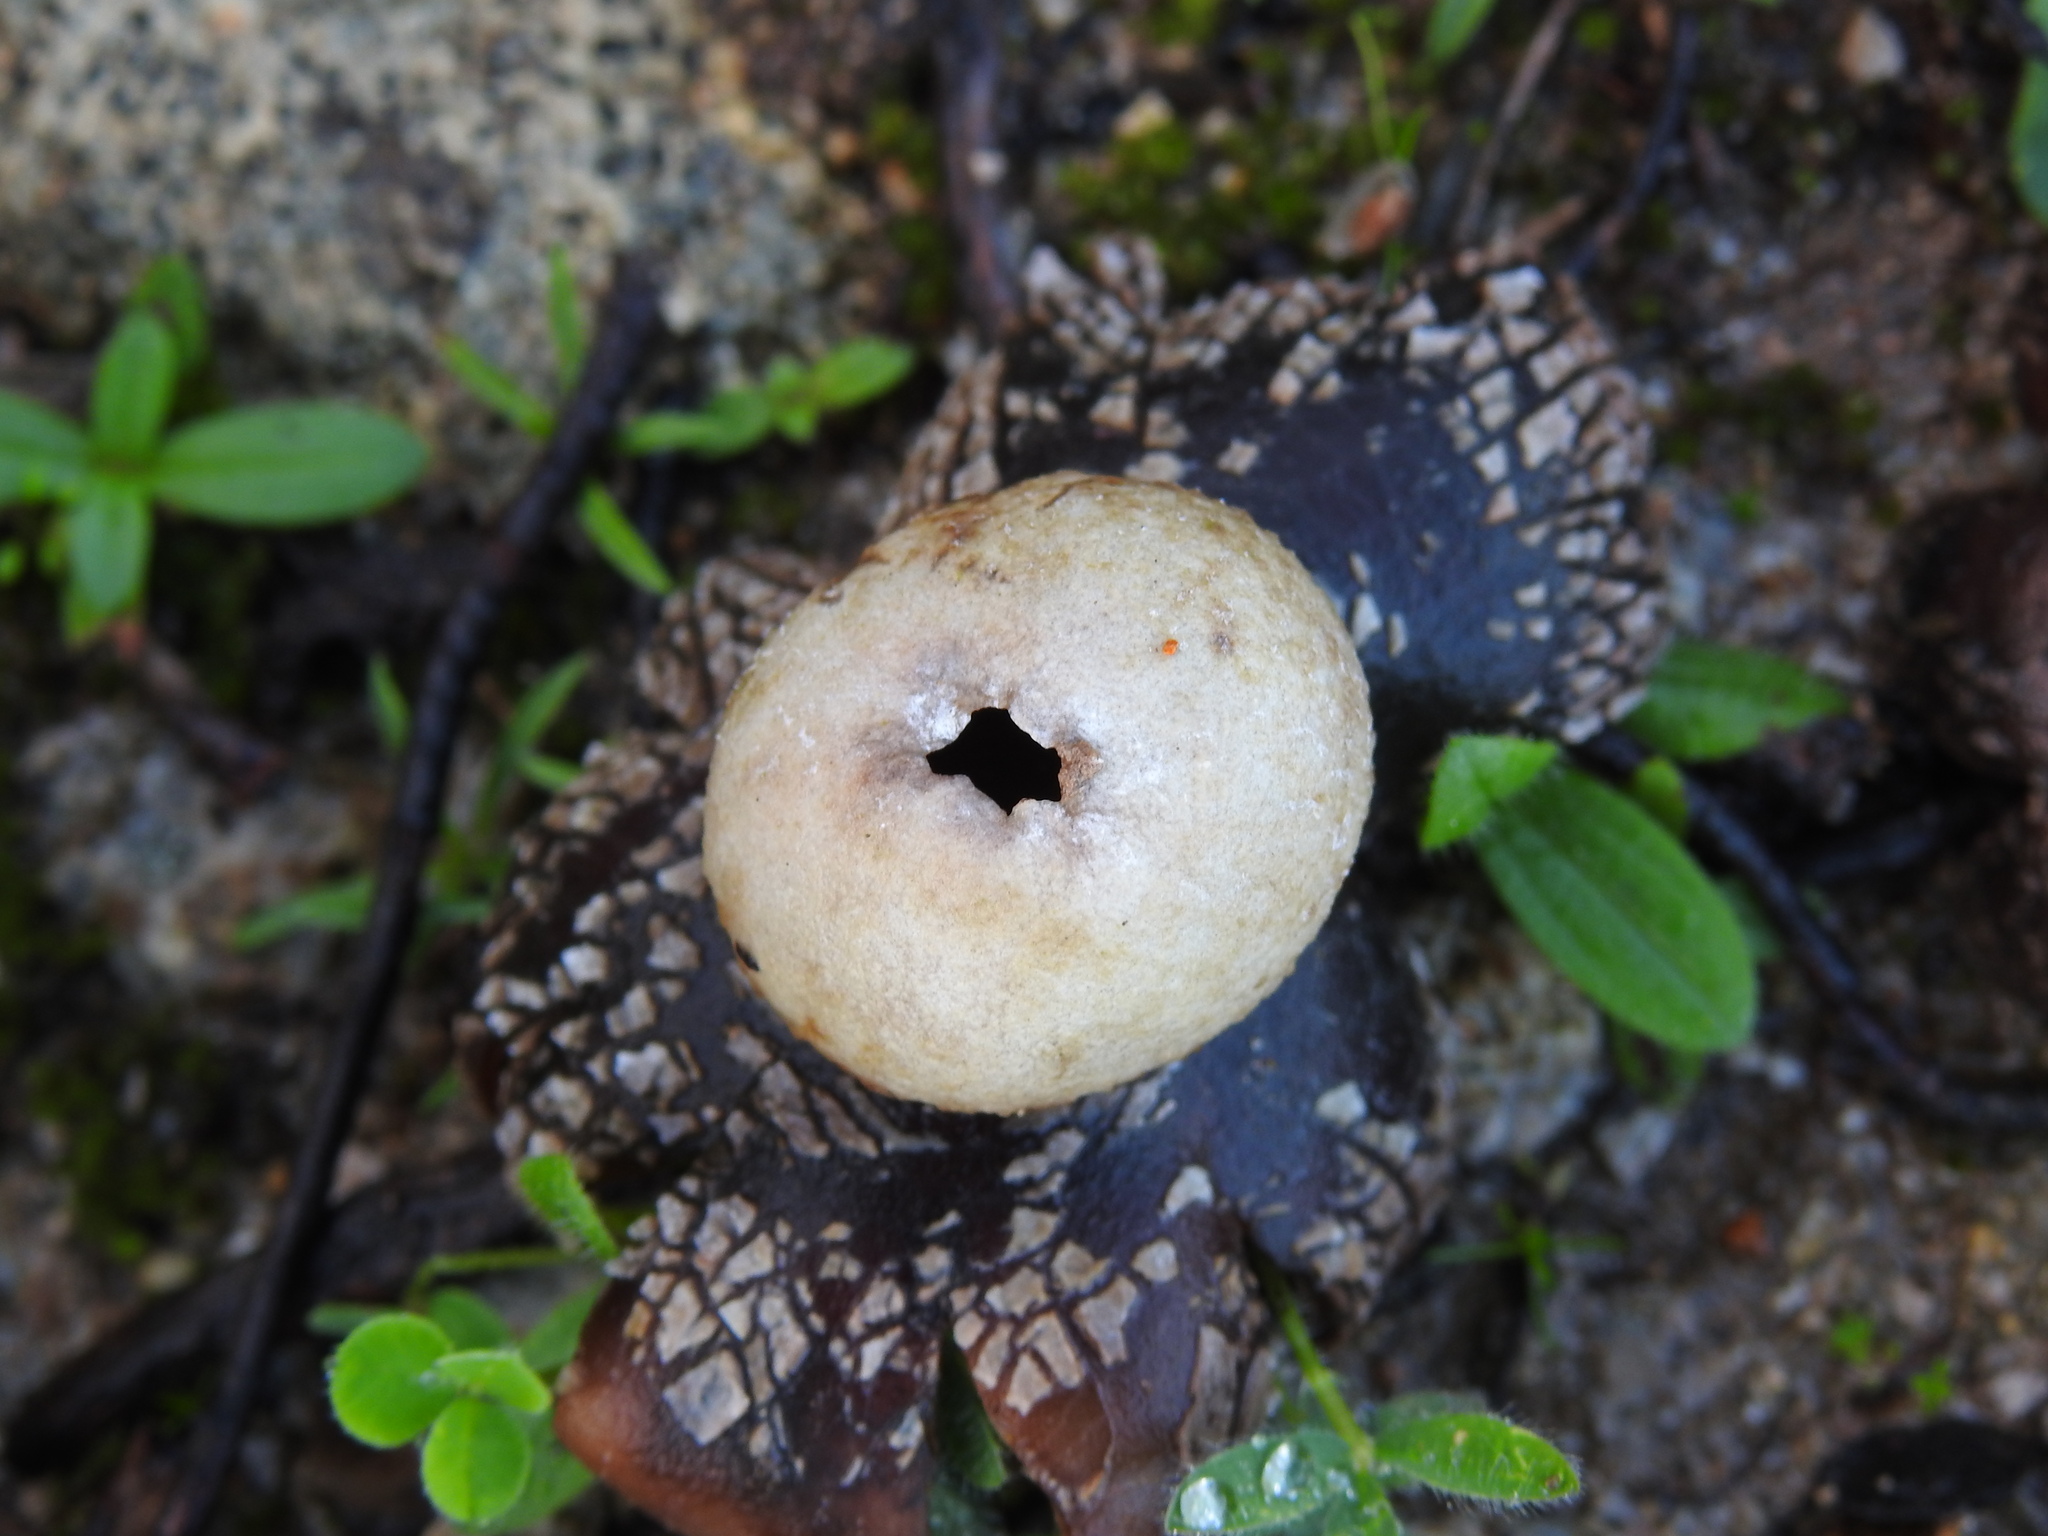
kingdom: Fungi
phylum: Basidiomycota
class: Agaricomycetes
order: Boletales
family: Diplocystidiaceae
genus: Astraeus
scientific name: Astraeus hygrometricus
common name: Barometer earthstar
